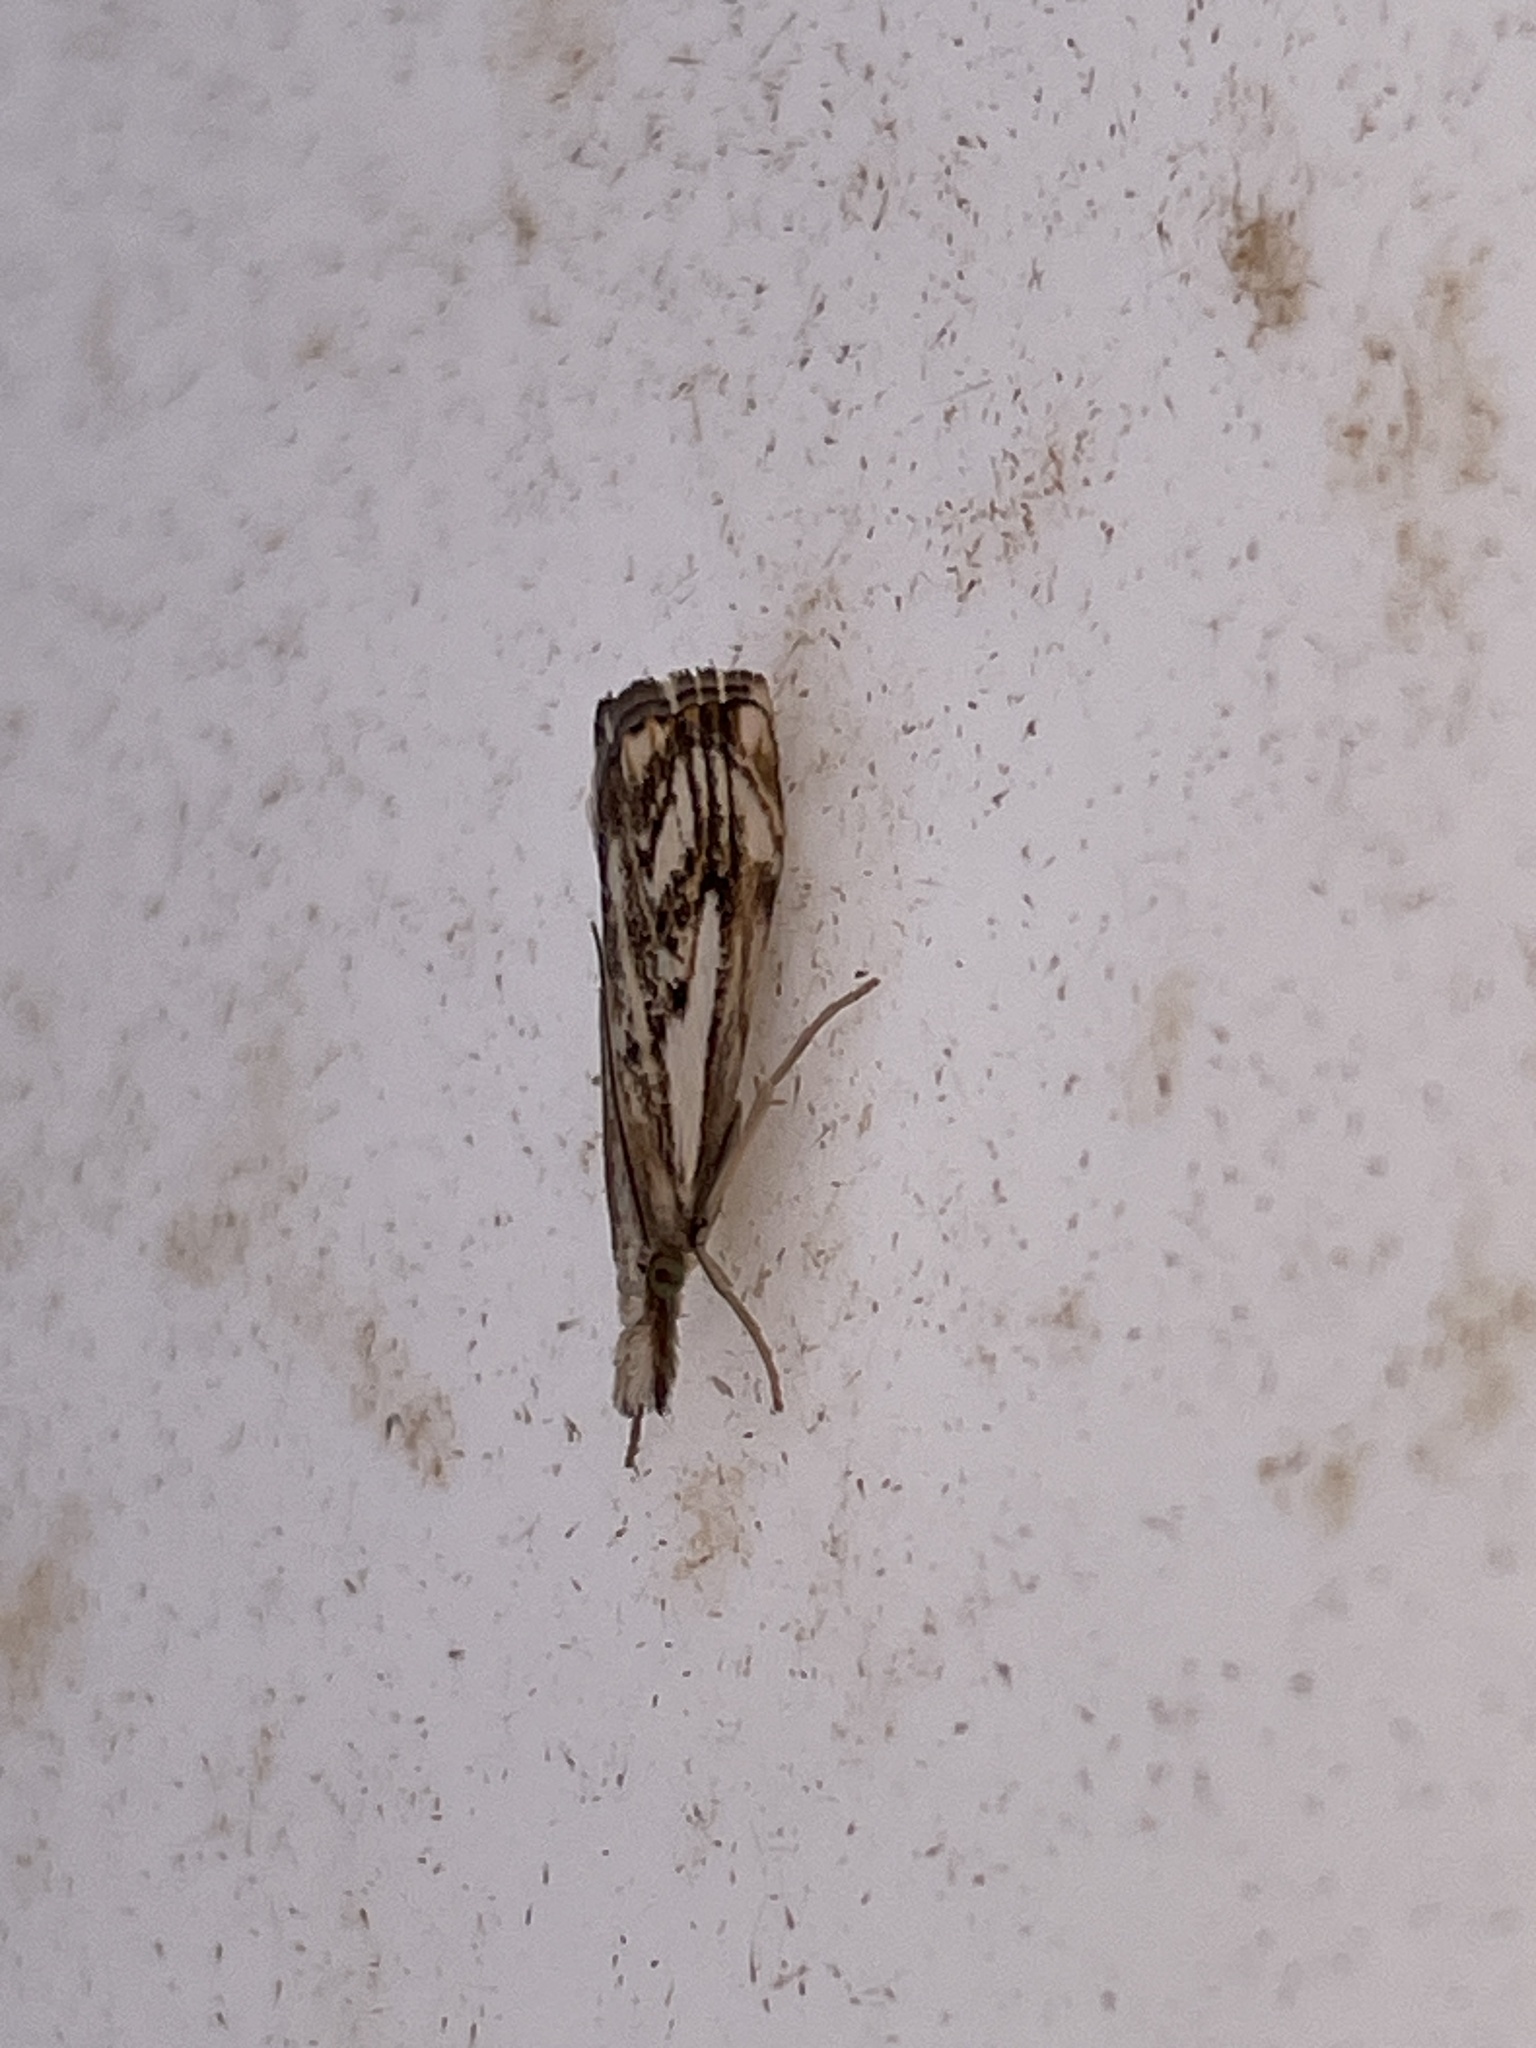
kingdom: Animalia
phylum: Arthropoda
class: Insecta
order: Lepidoptera
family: Crambidae
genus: Catoptria
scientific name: Catoptria falsella
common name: Chequered grass-veneer
